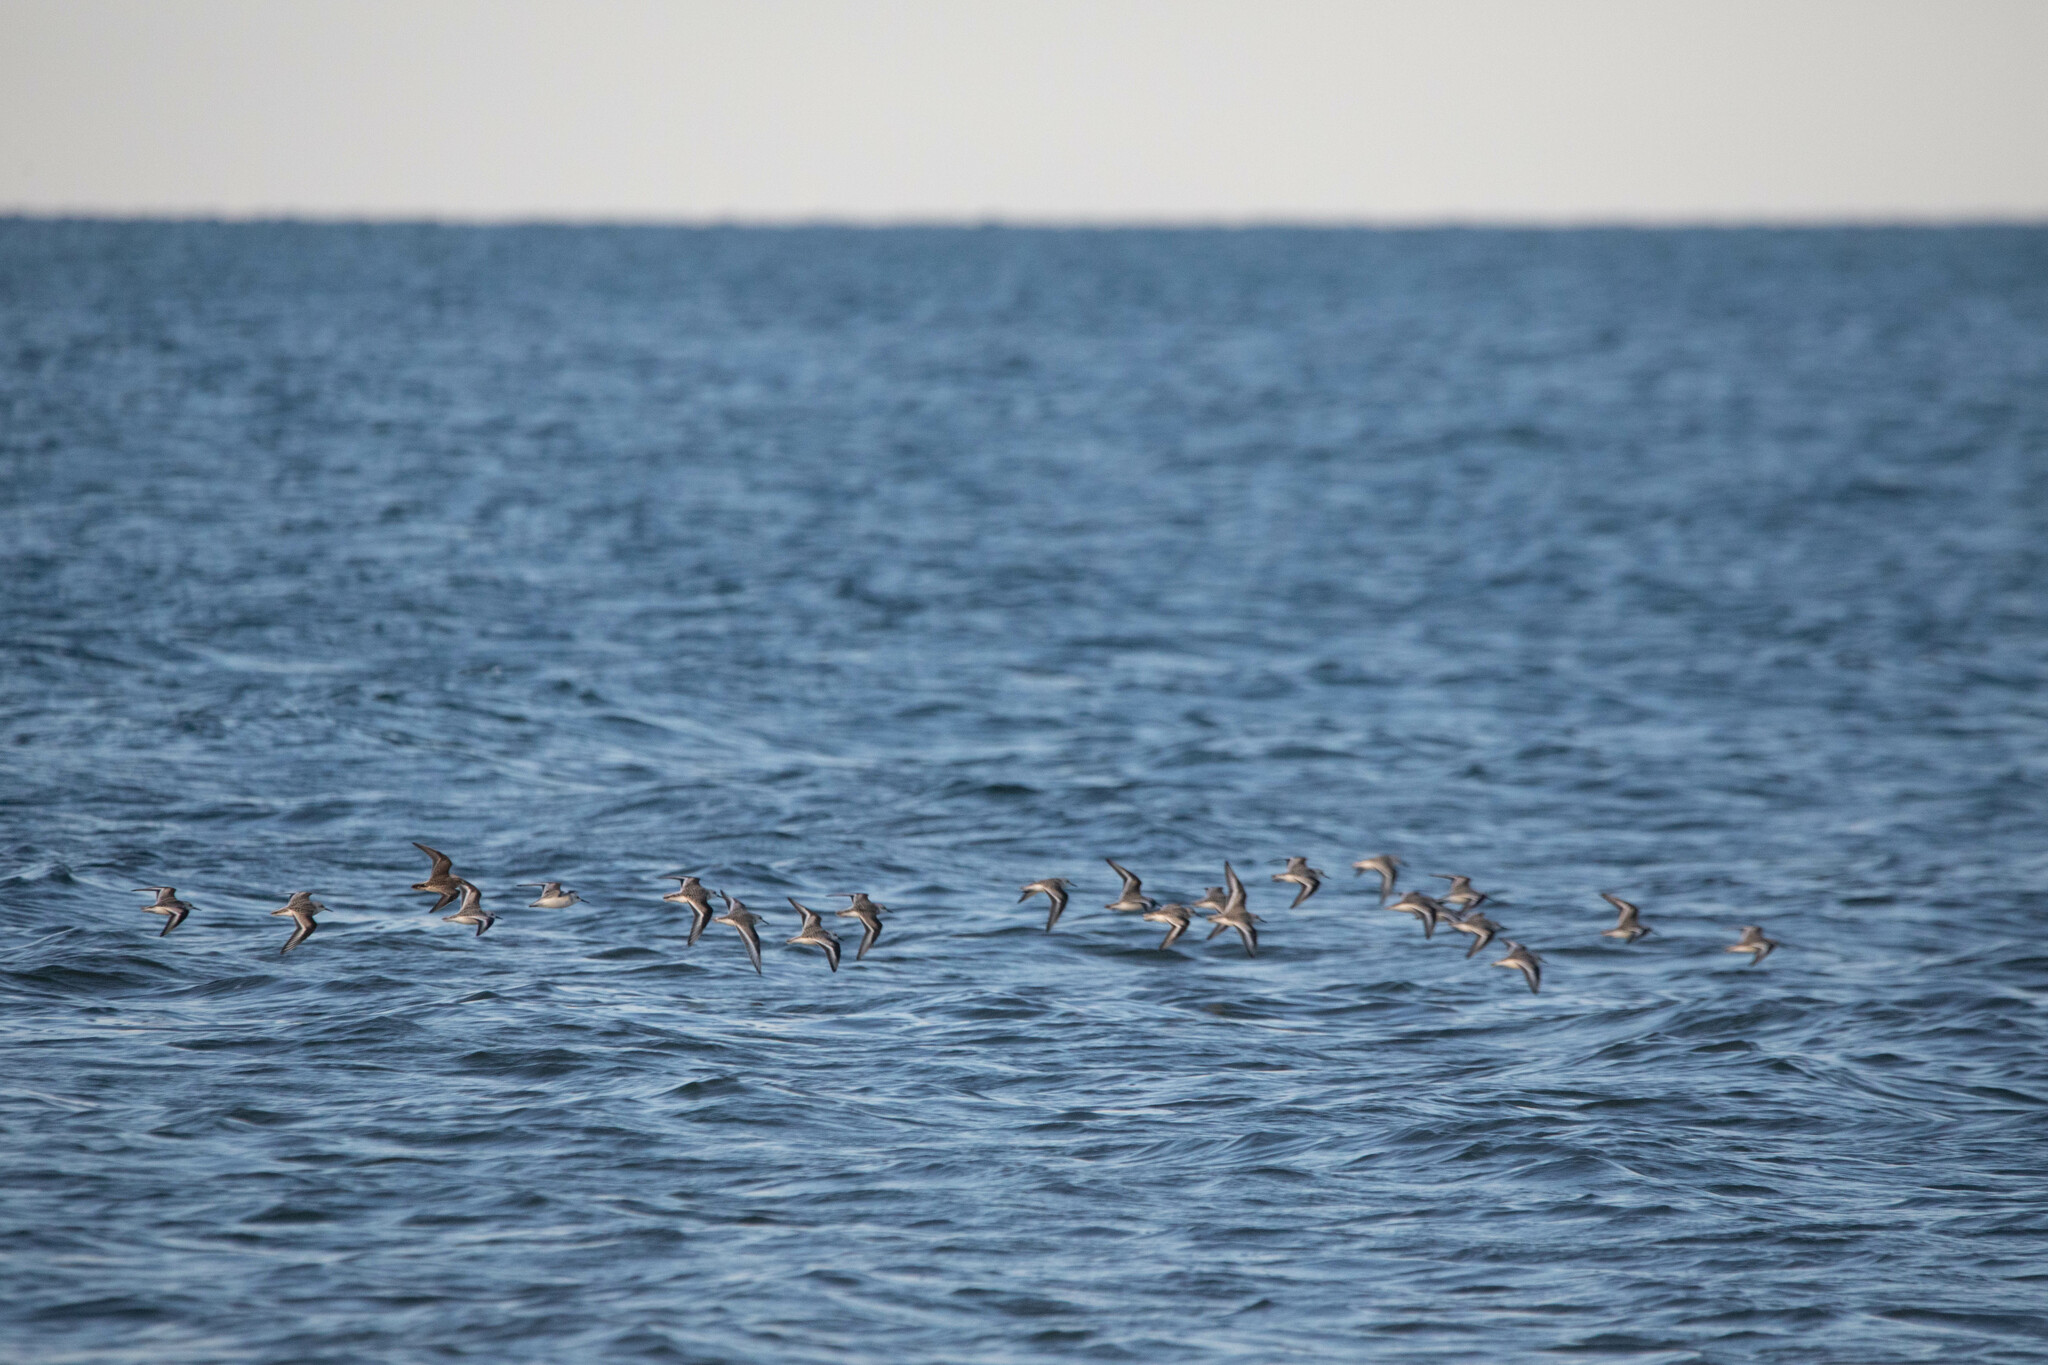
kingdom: Animalia
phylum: Chordata
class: Aves
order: Charadriiformes
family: Scolopacidae
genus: Calidris
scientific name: Calidris alba
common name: Sanderling
